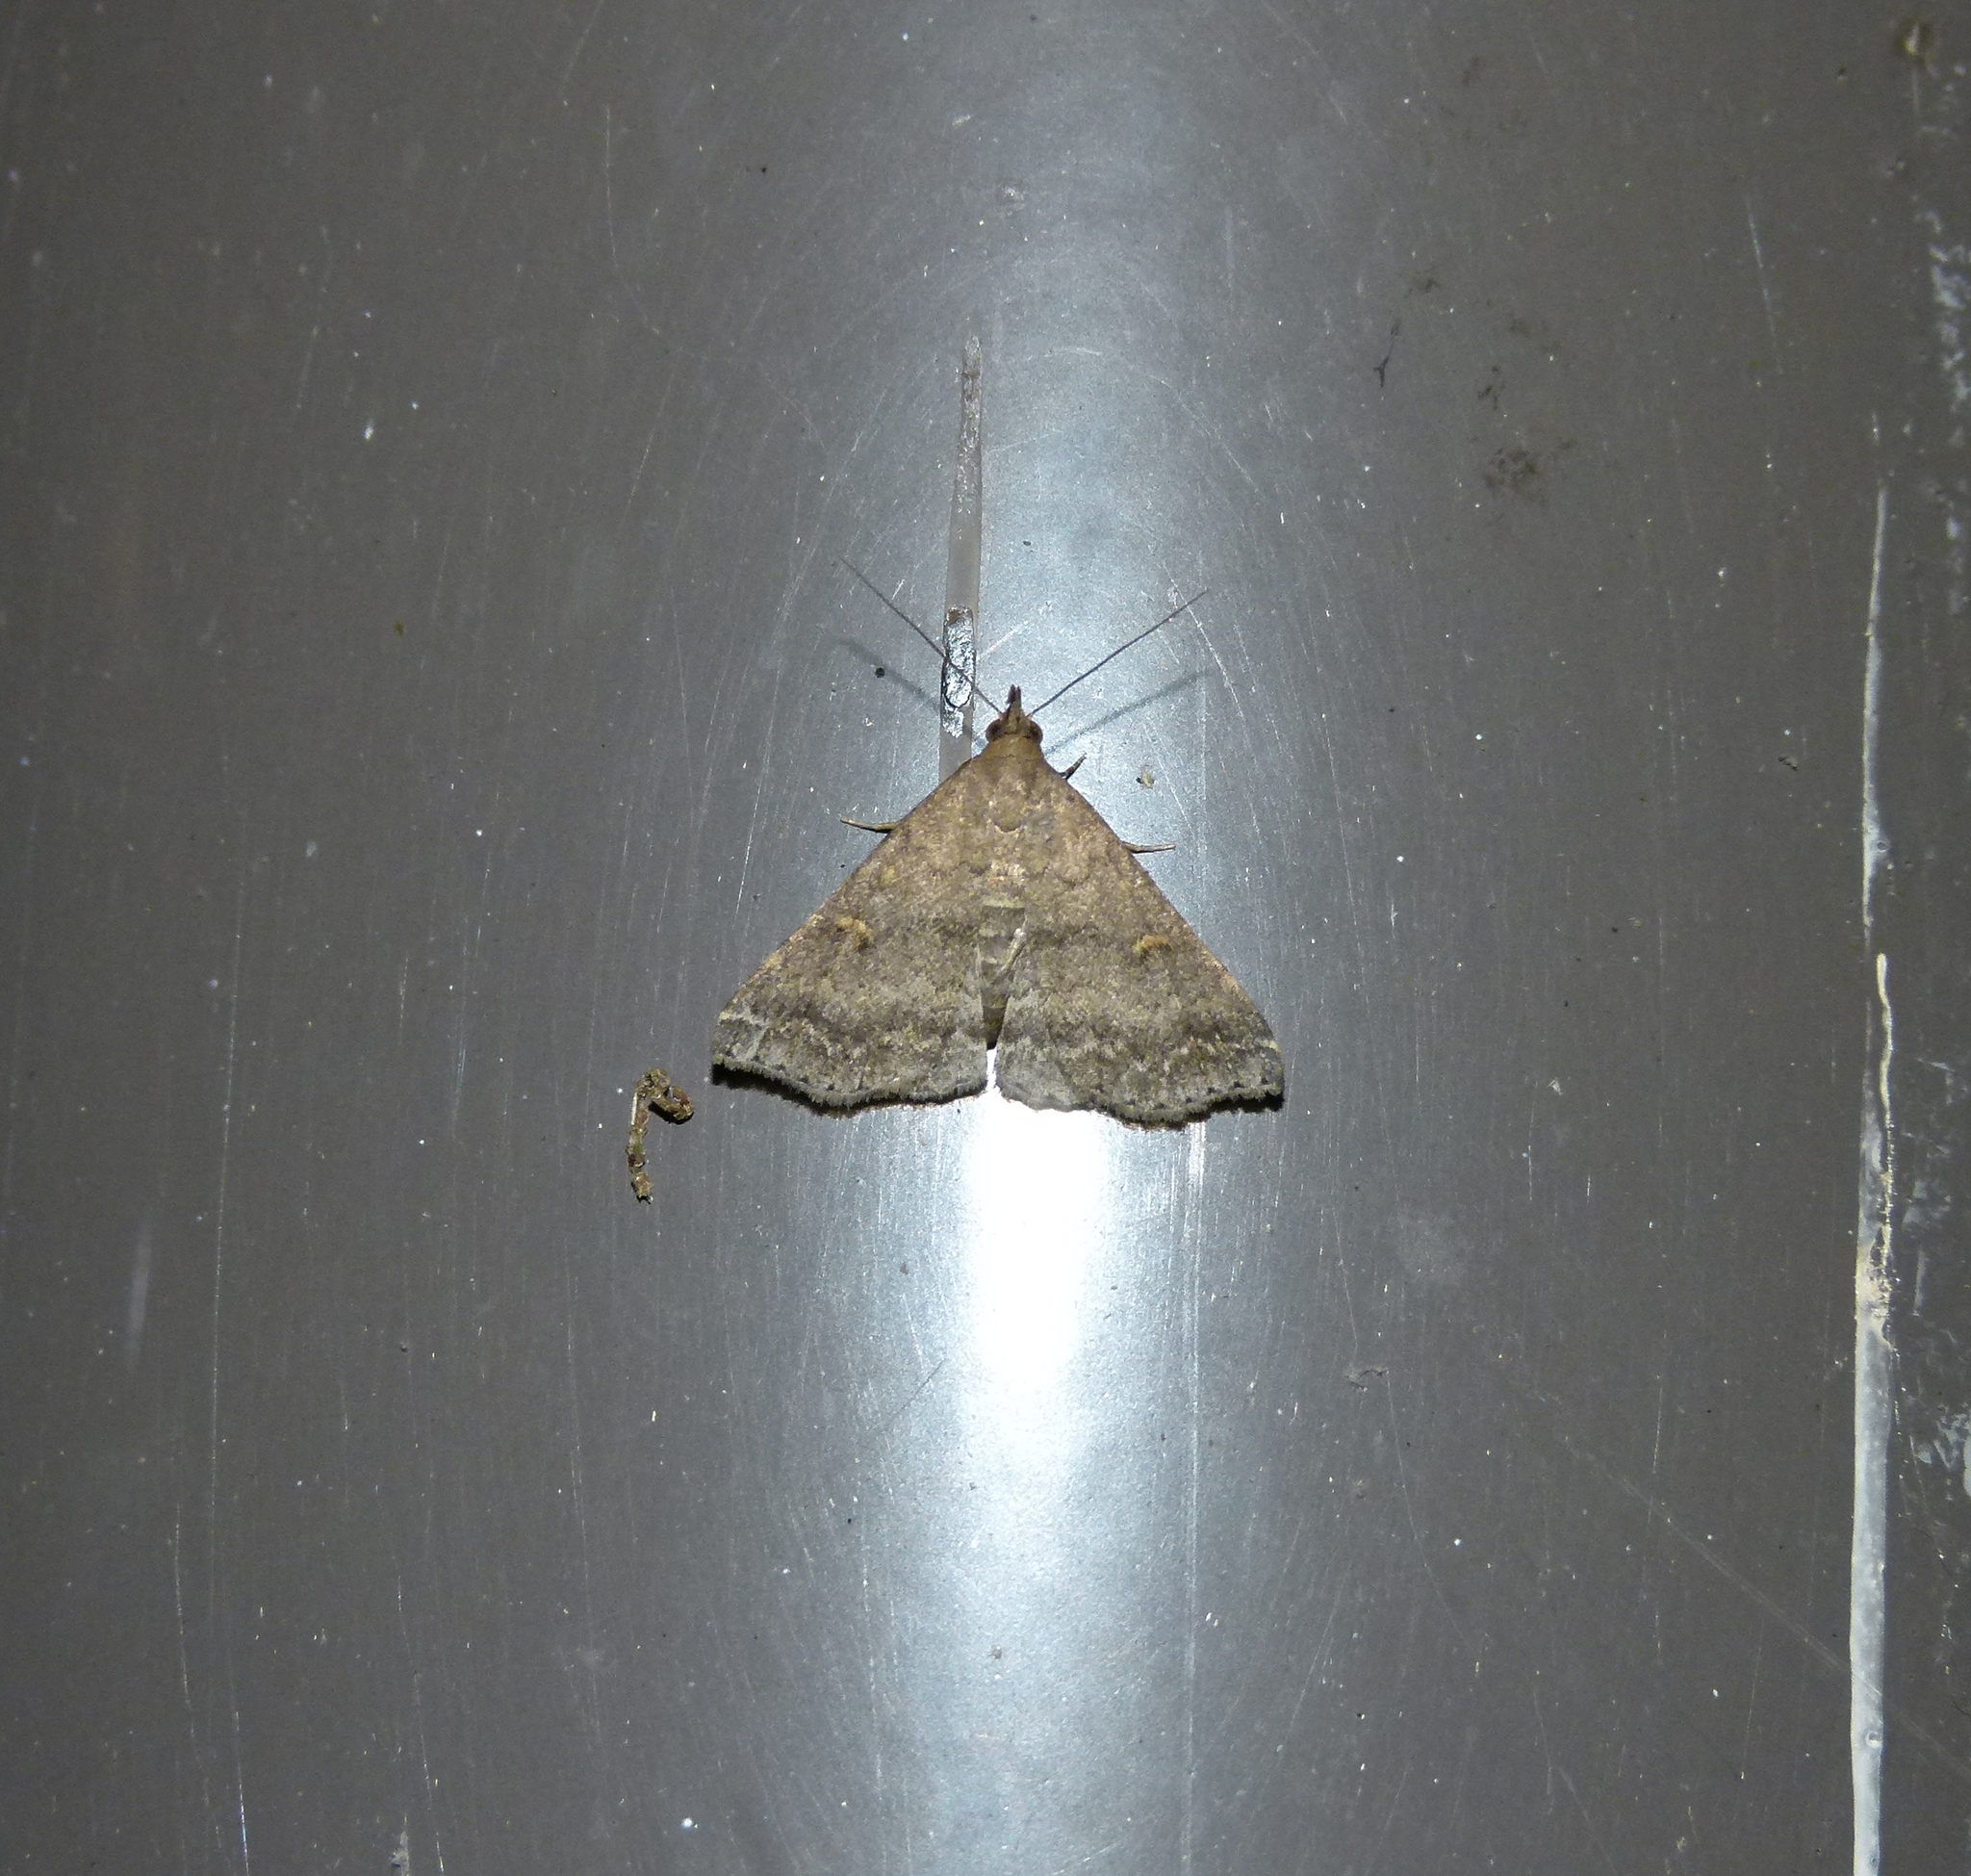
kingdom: Animalia
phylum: Arthropoda
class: Insecta
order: Lepidoptera
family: Erebidae
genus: Tetanolita
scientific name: Tetanolita floridana
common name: Florida tetanolita moth
